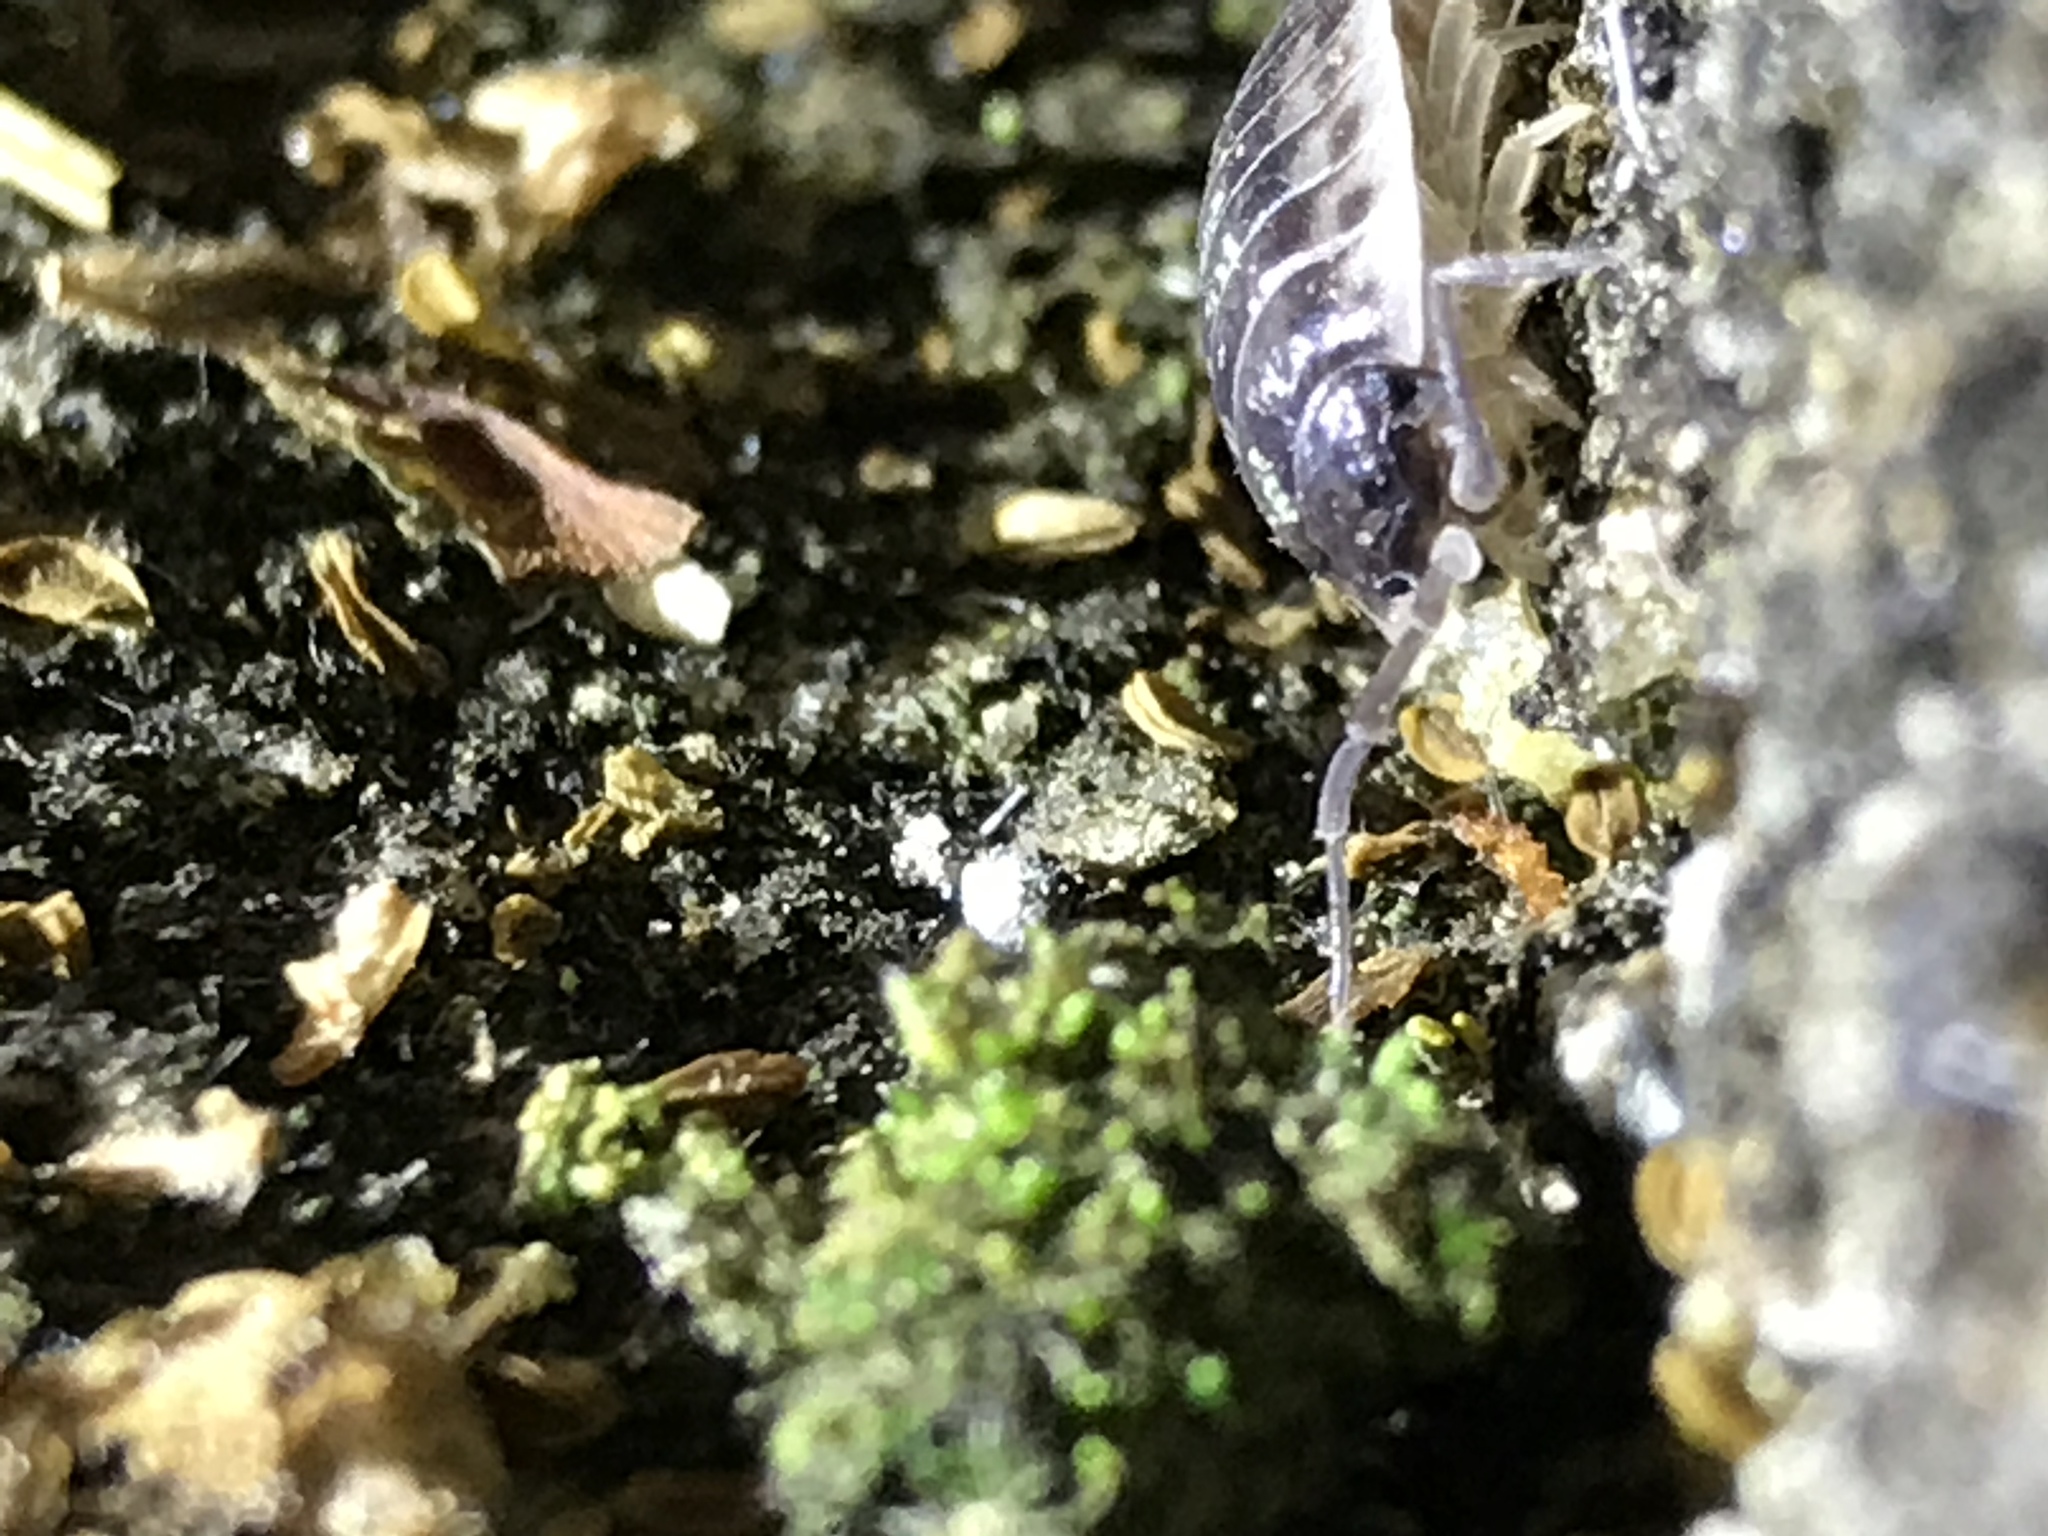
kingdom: Animalia
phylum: Arthropoda
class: Malacostraca
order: Isopoda
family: Oniscidae
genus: Oniscus
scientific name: Oniscus asellus
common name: Common shiny woodlouse
